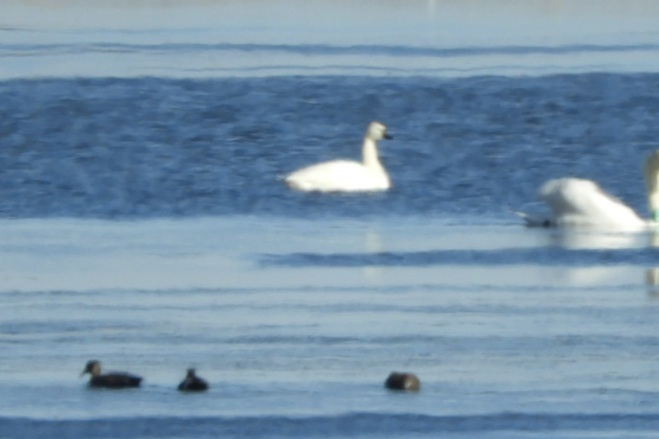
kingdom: Animalia
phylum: Chordata
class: Aves
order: Anseriformes
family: Anatidae
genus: Cygnus
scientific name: Cygnus columbianus
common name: Tundra swan
